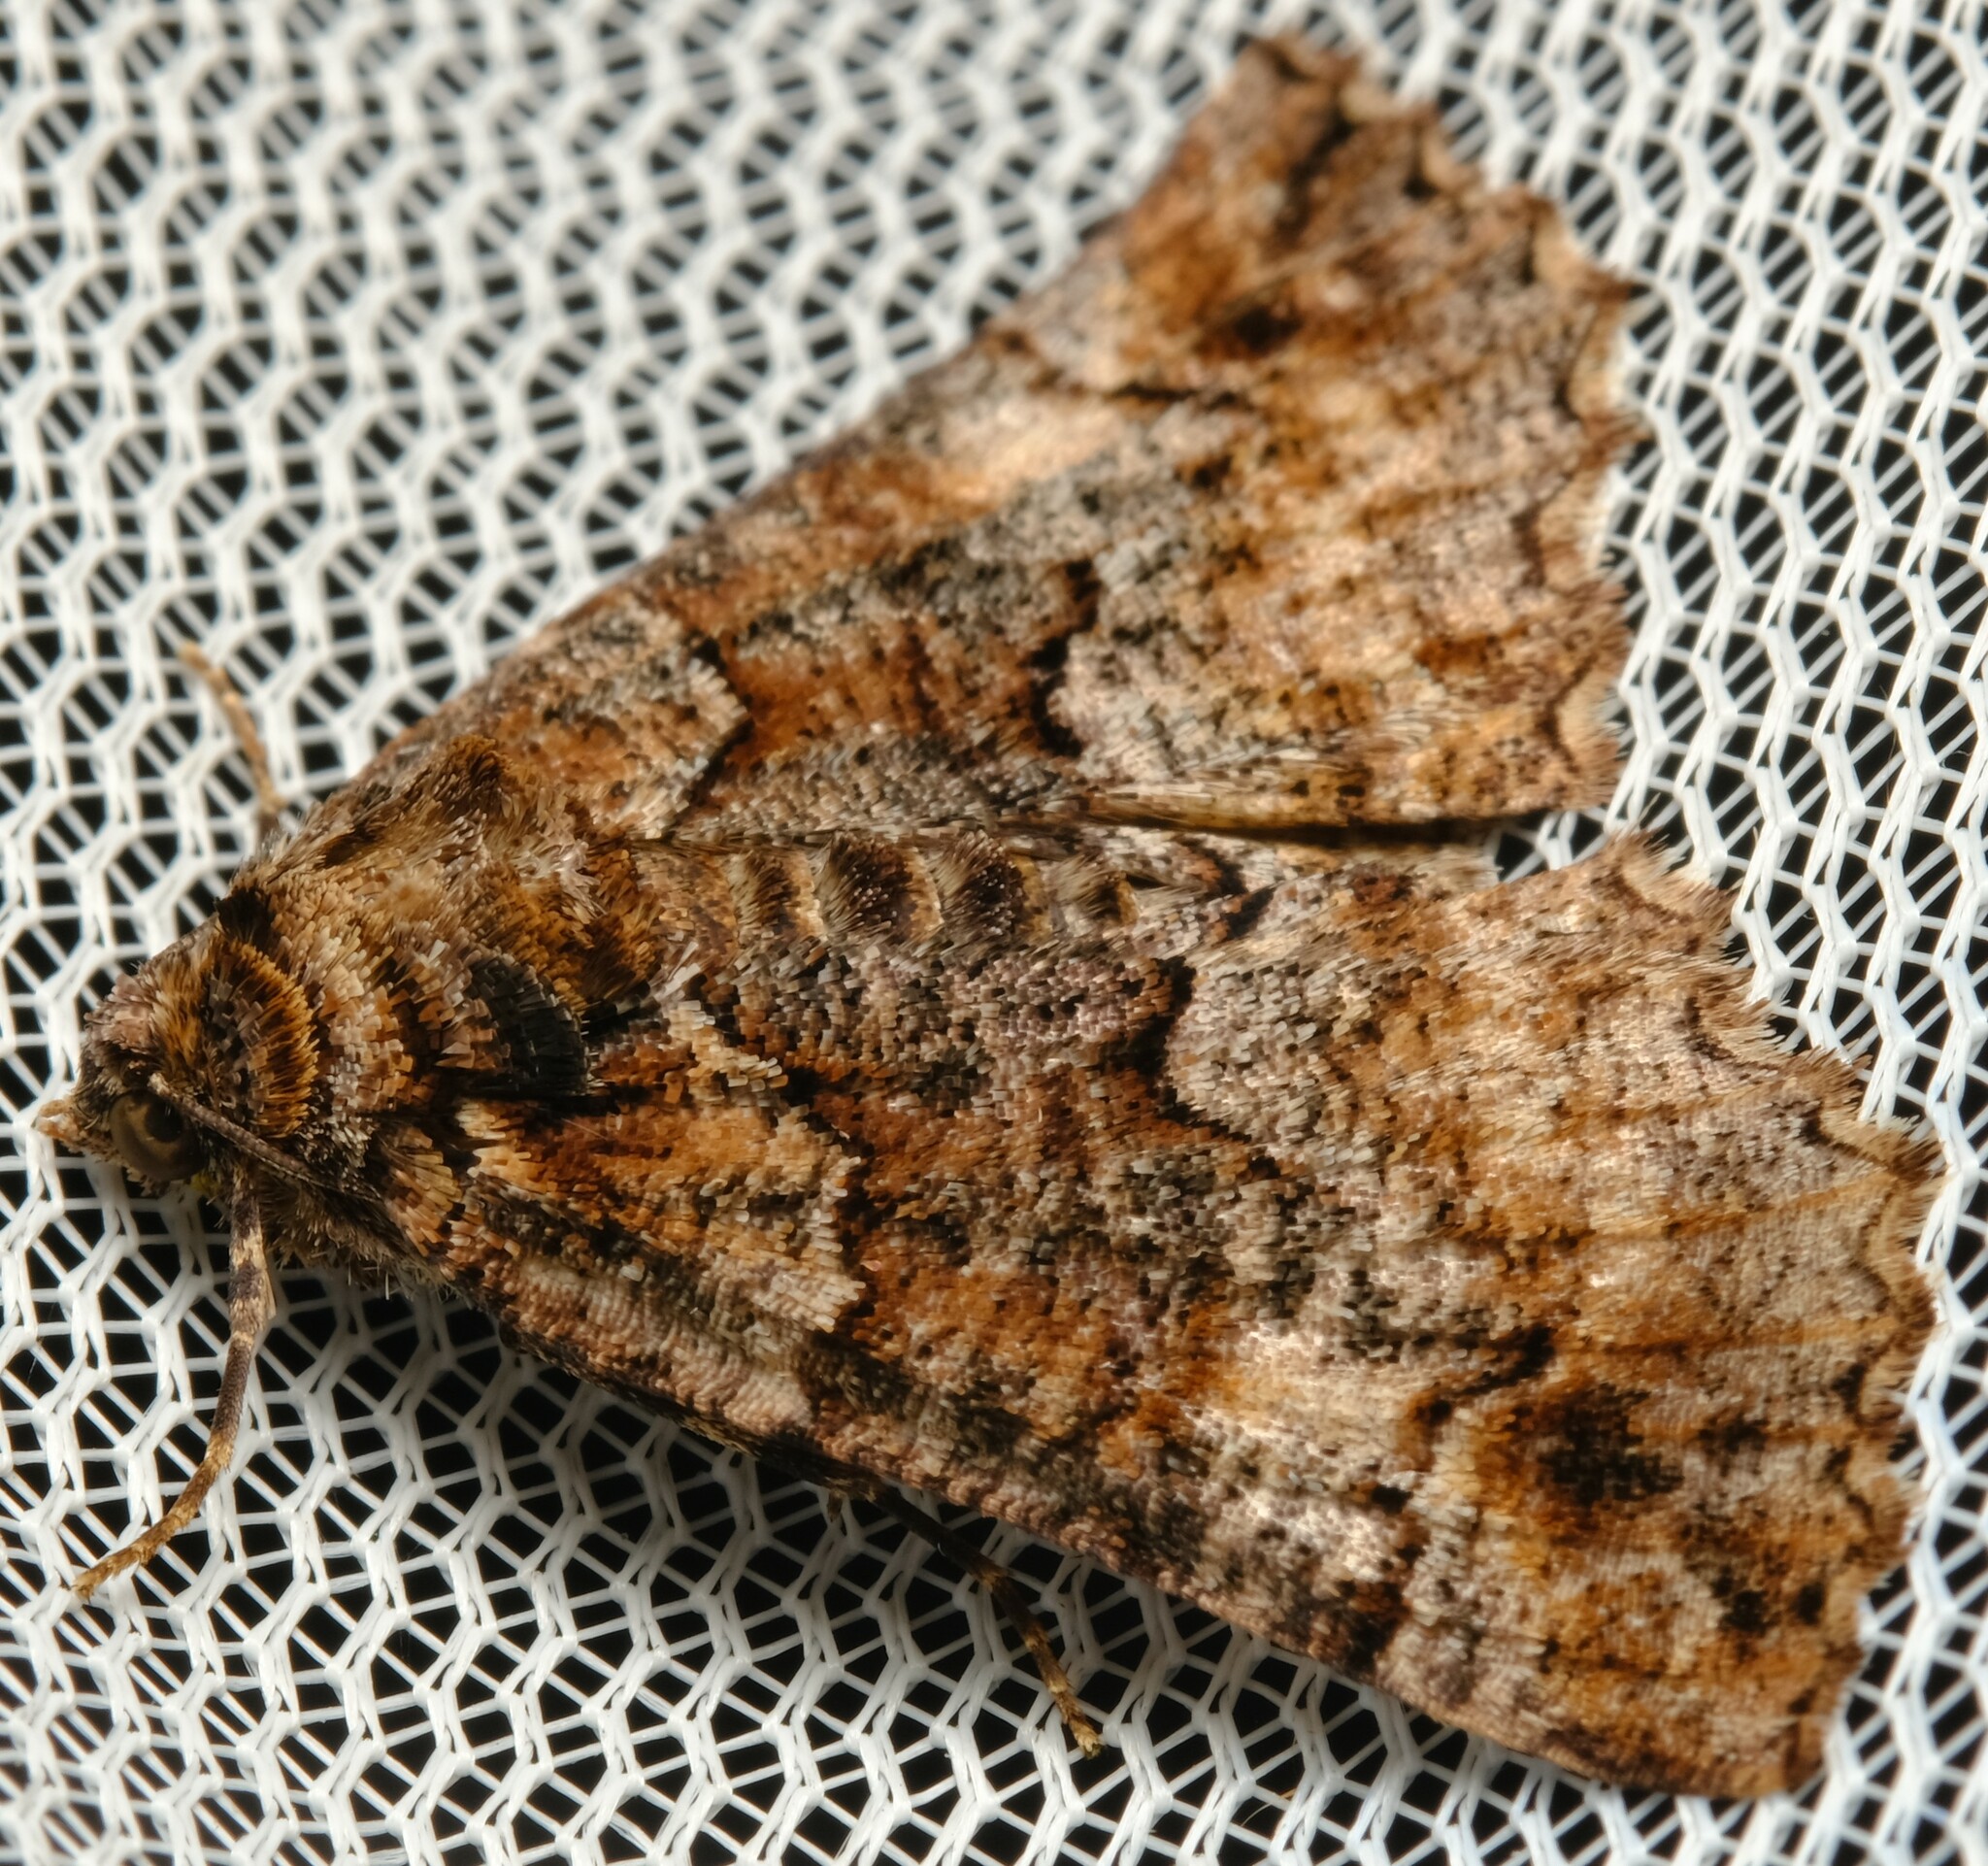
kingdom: Animalia
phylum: Arthropoda
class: Insecta
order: Lepidoptera
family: Geometridae
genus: Gastrina
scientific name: Gastrina cristaria
